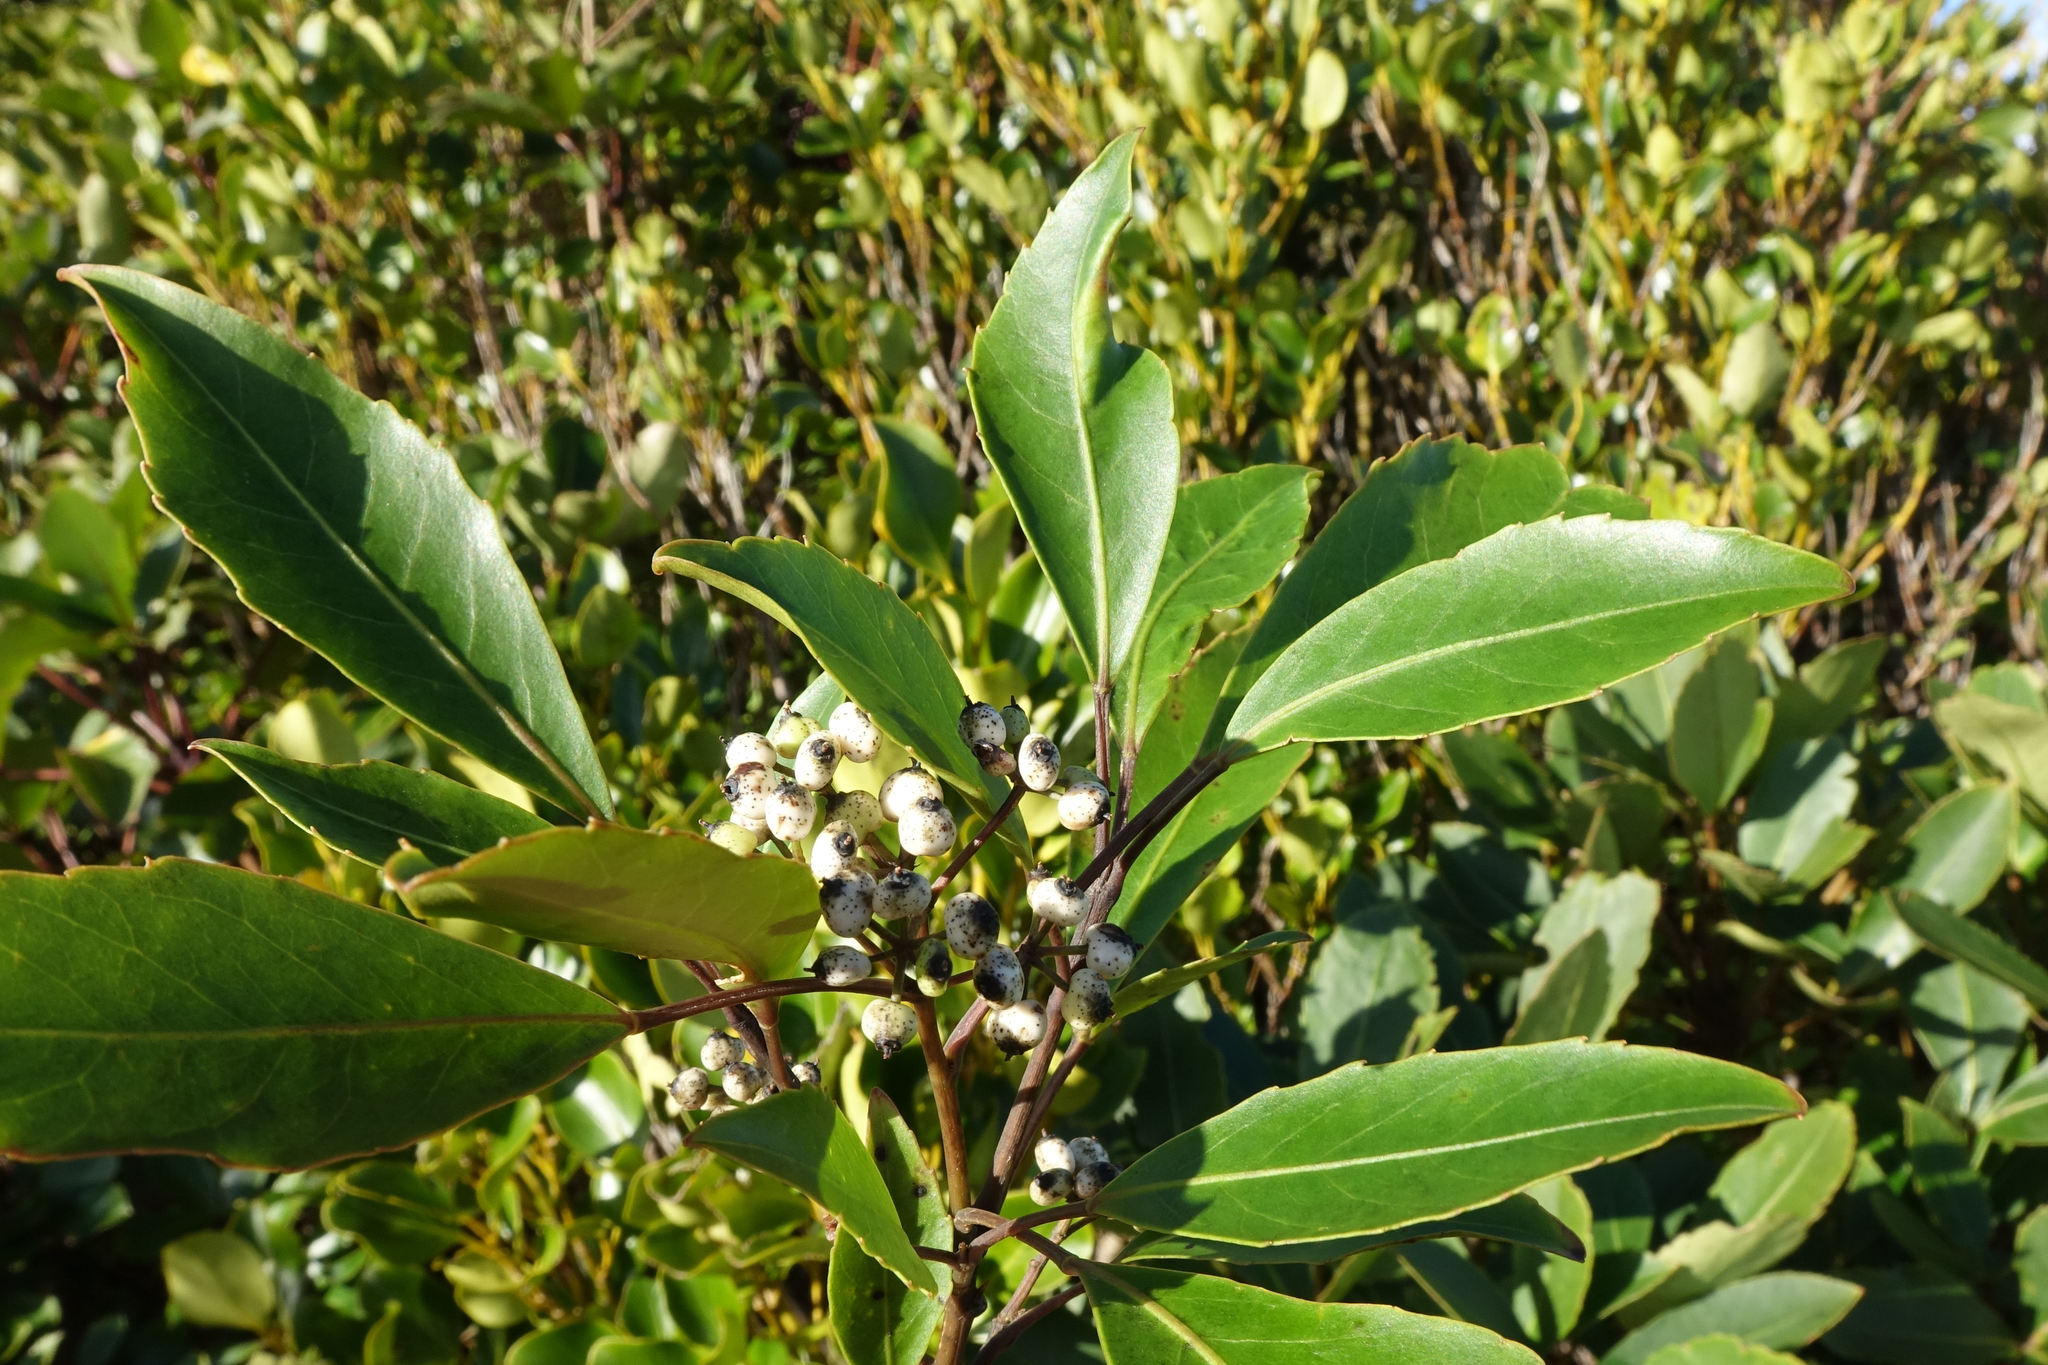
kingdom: Plantae
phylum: Tracheophyta
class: Magnoliopsida
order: Apiales
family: Araliaceae
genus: Raukaua
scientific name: Raukaua simplex
